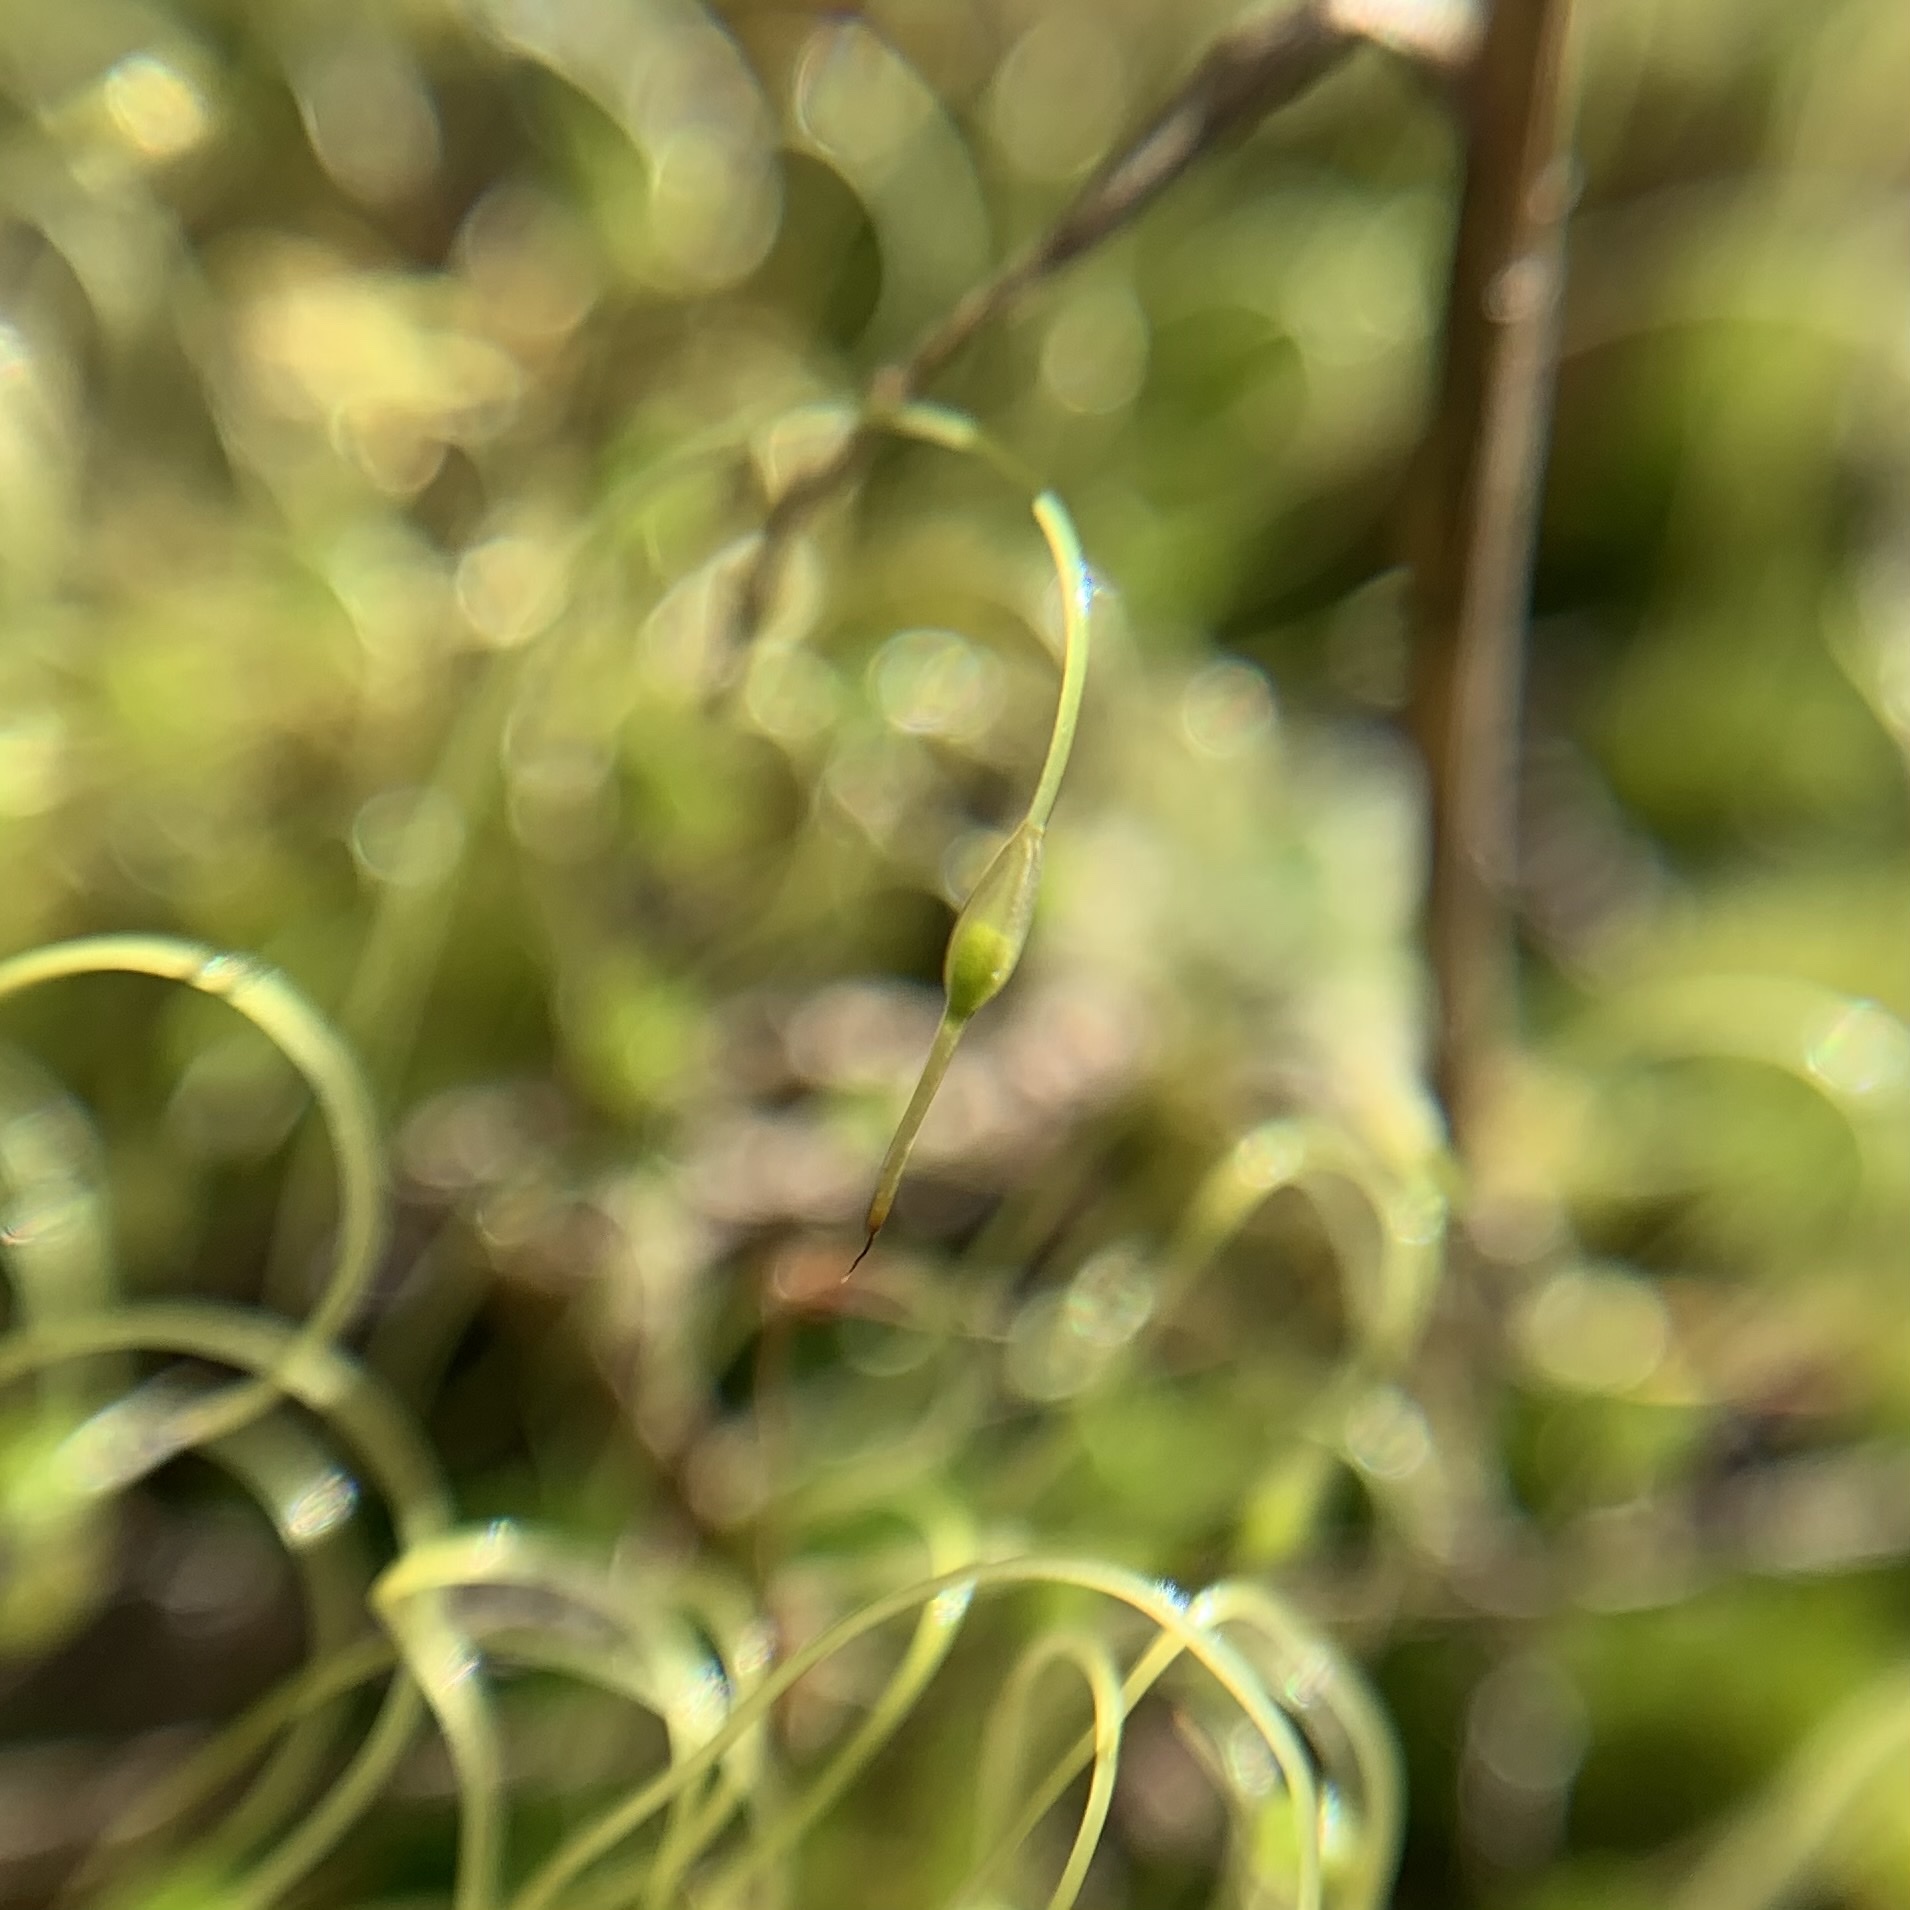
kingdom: Plantae
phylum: Bryophyta
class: Bryopsida
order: Funariales
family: Funariaceae
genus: Funaria
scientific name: Funaria hygrometrica
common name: Common cord moss
